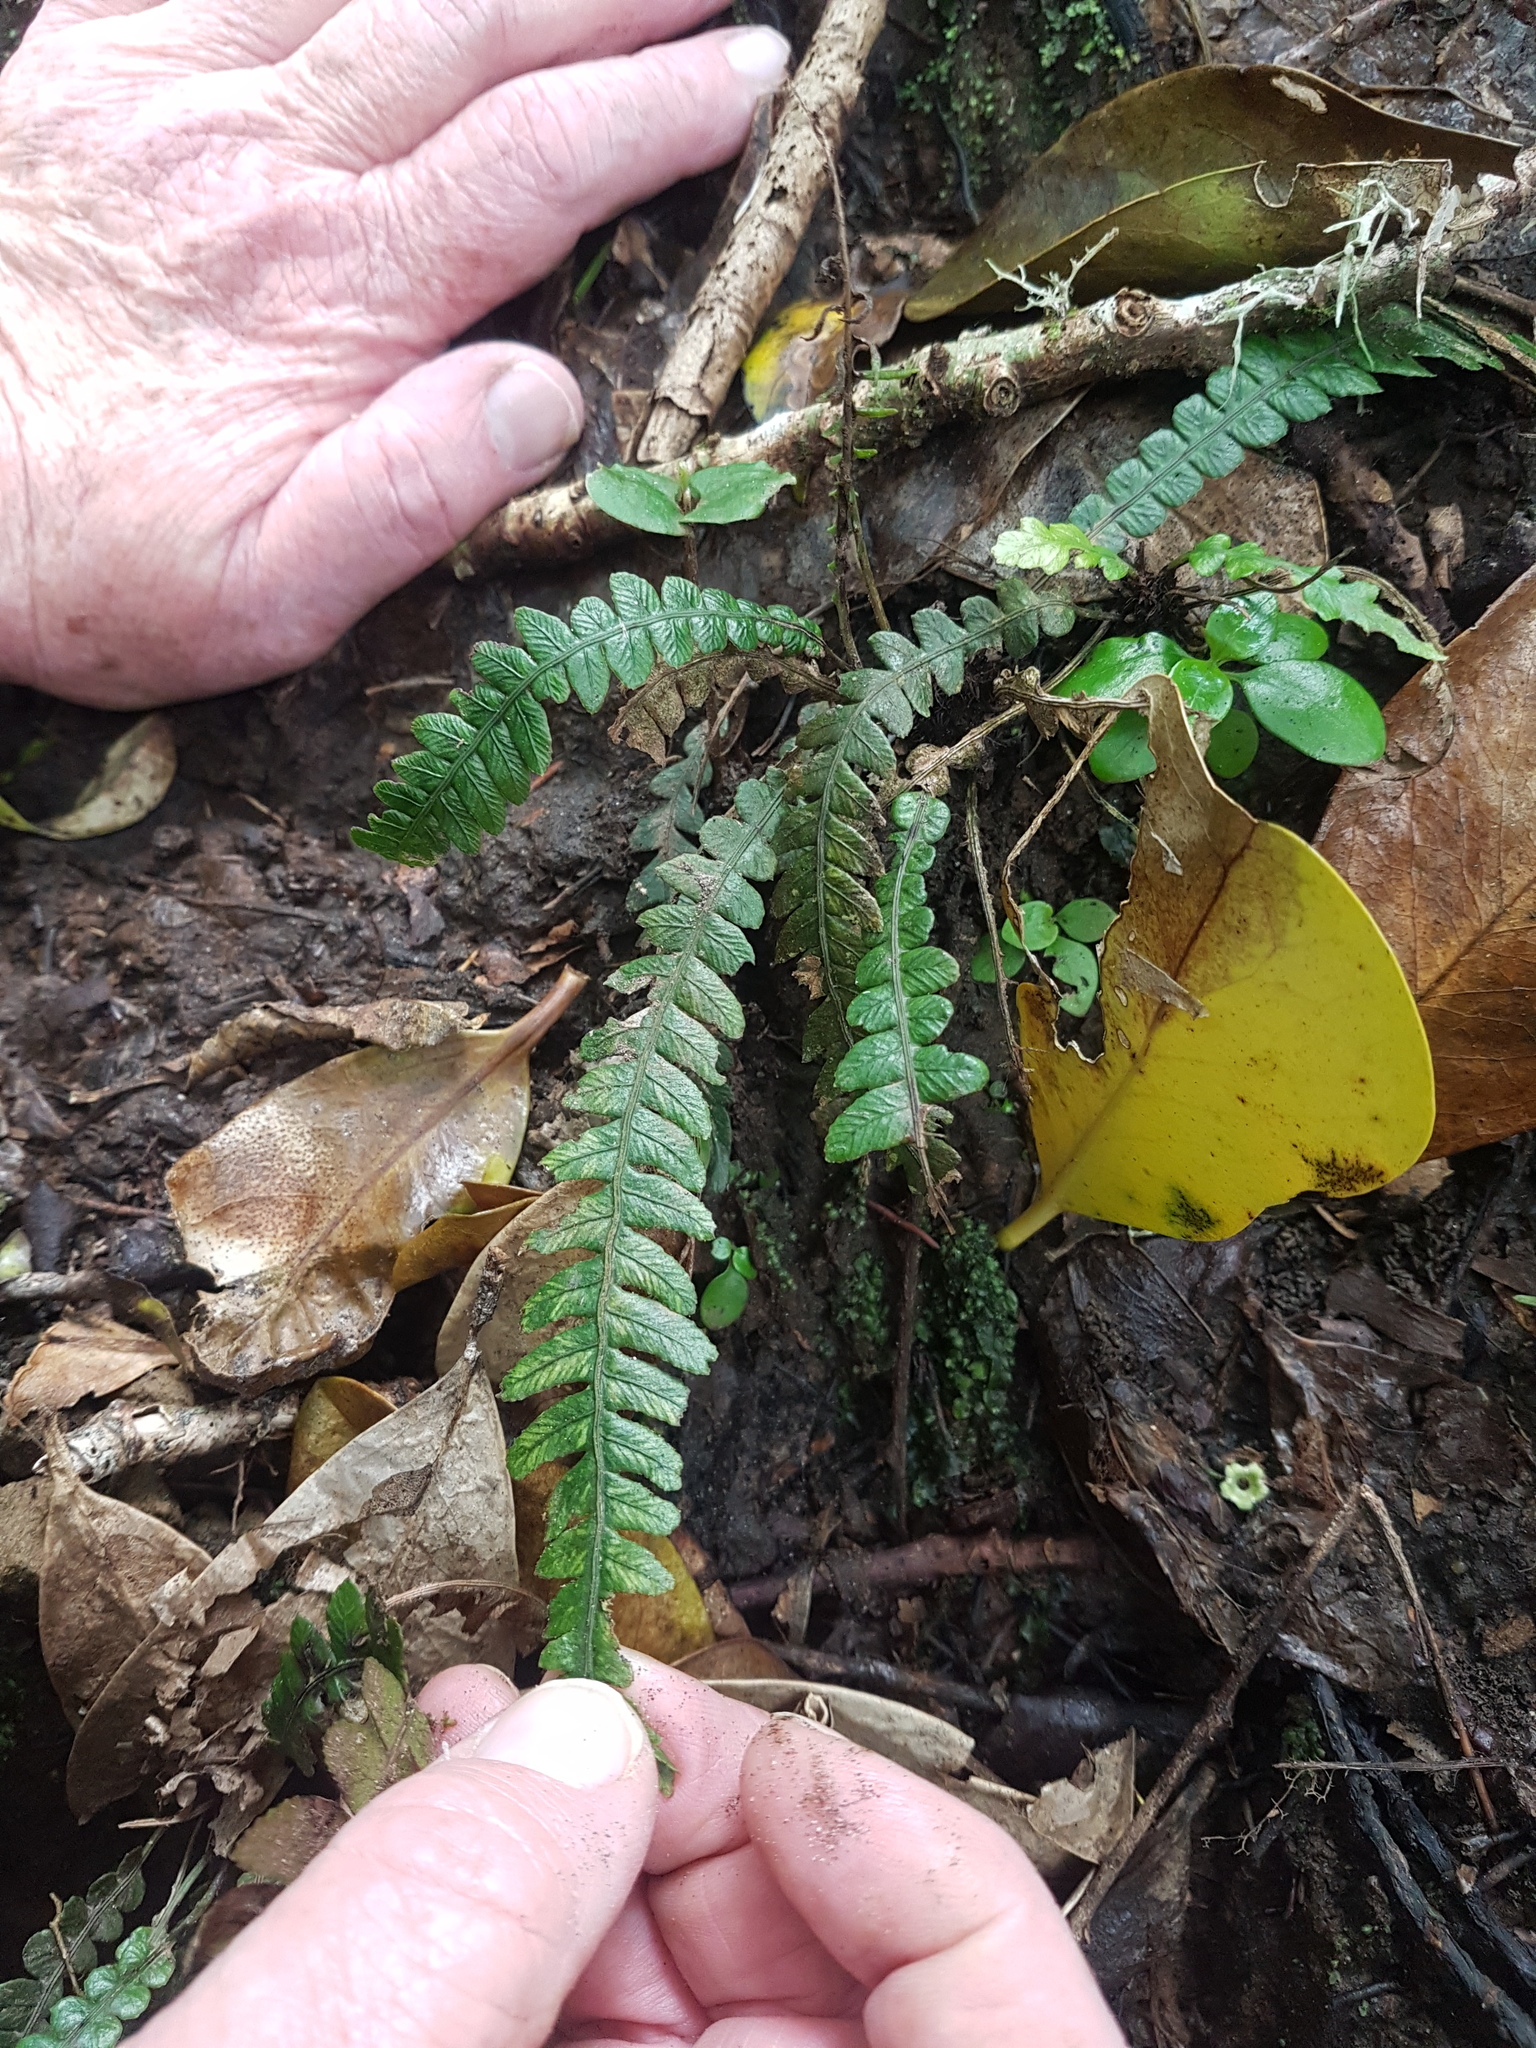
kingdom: Plantae
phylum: Tracheophyta
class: Polypodiopsida
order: Polypodiales
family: Blechnaceae
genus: Austroblechnum
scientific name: Austroblechnum lanceolatum
